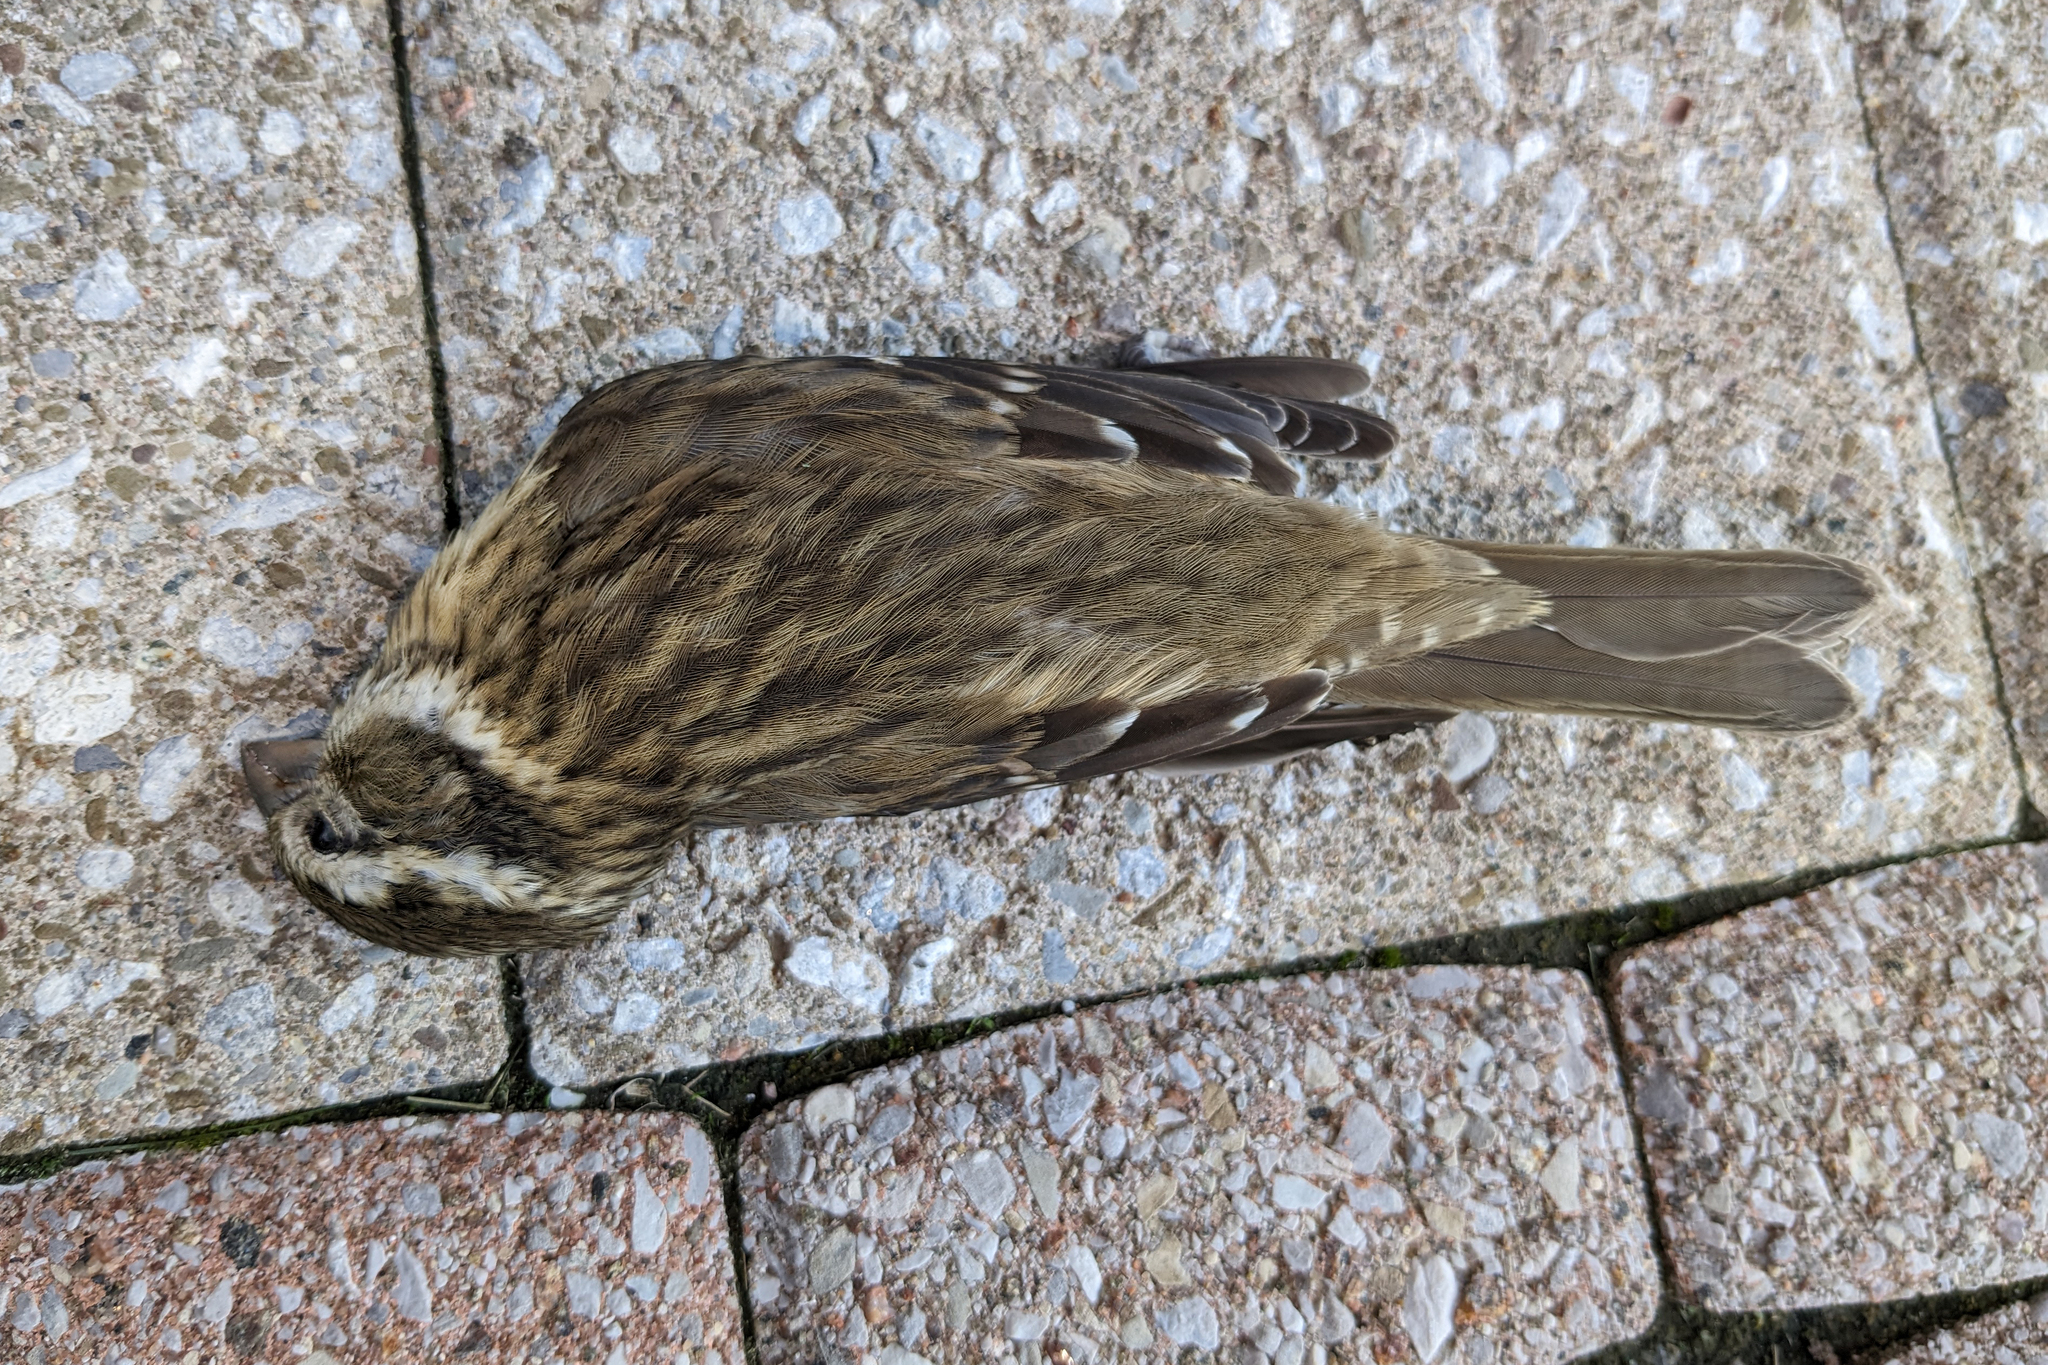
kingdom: Animalia
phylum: Chordata
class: Aves
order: Passeriformes
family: Cardinalidae
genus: Pheucticus
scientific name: Pheucticus ludovicianus
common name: Rose-breasted grosbeak
